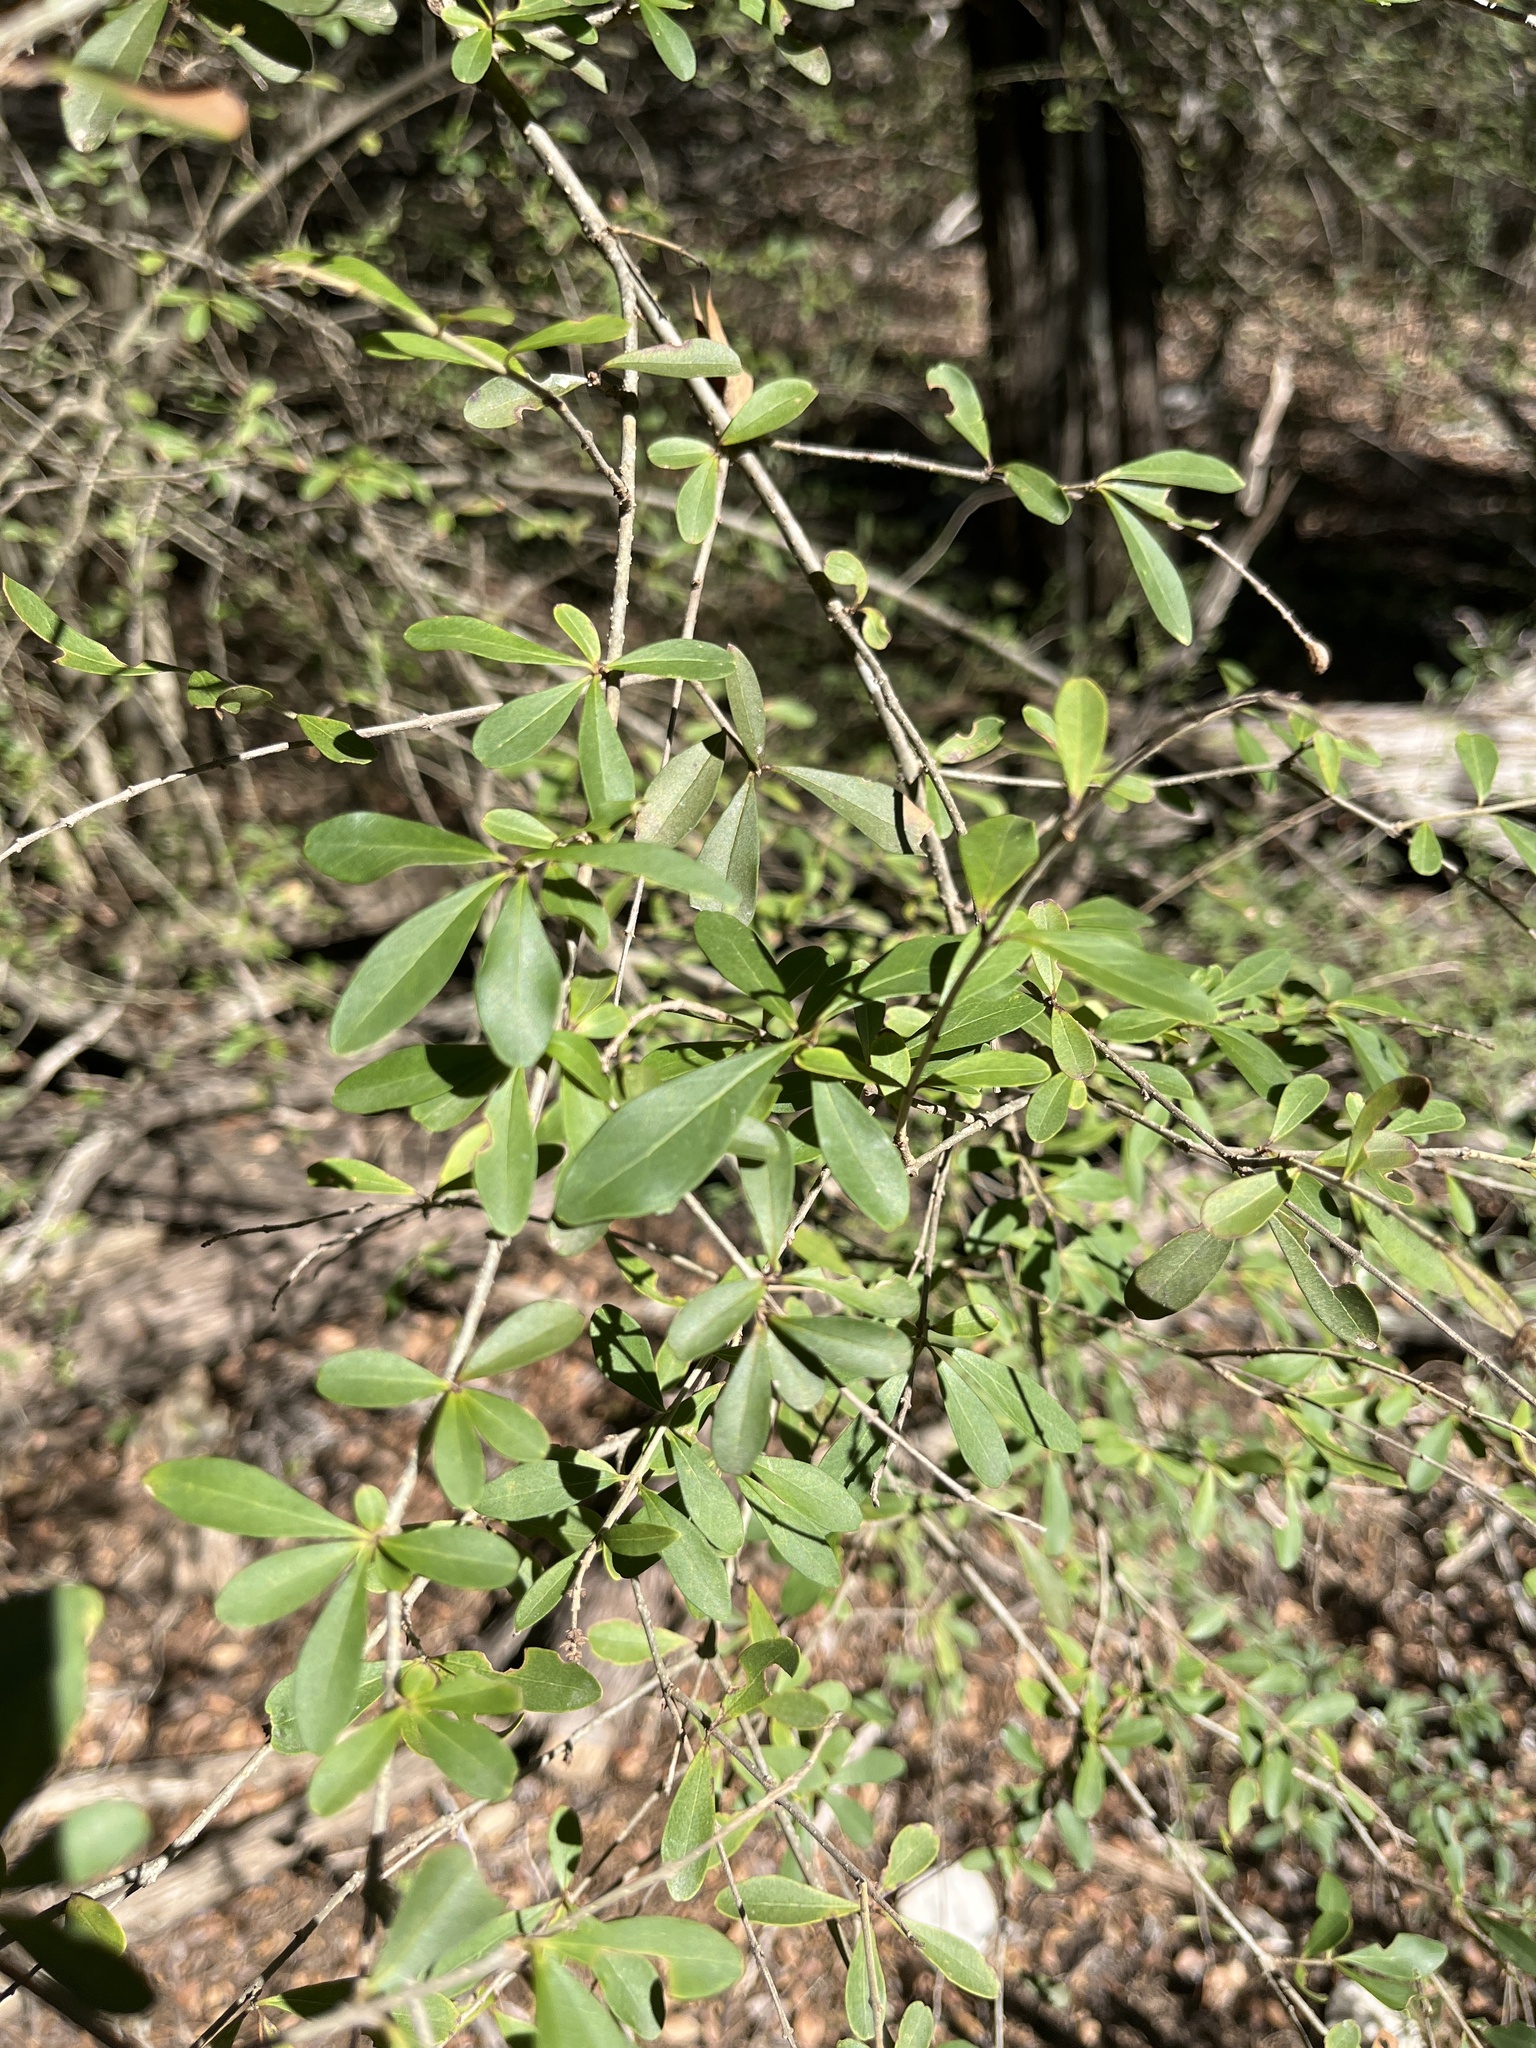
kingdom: Plantae
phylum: Tracheophyta
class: Magnoliopsida
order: Lamiales
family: Oleaceae
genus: Ligustrum
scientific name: Ligustrum quihoui
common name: Waxyleaf privet
